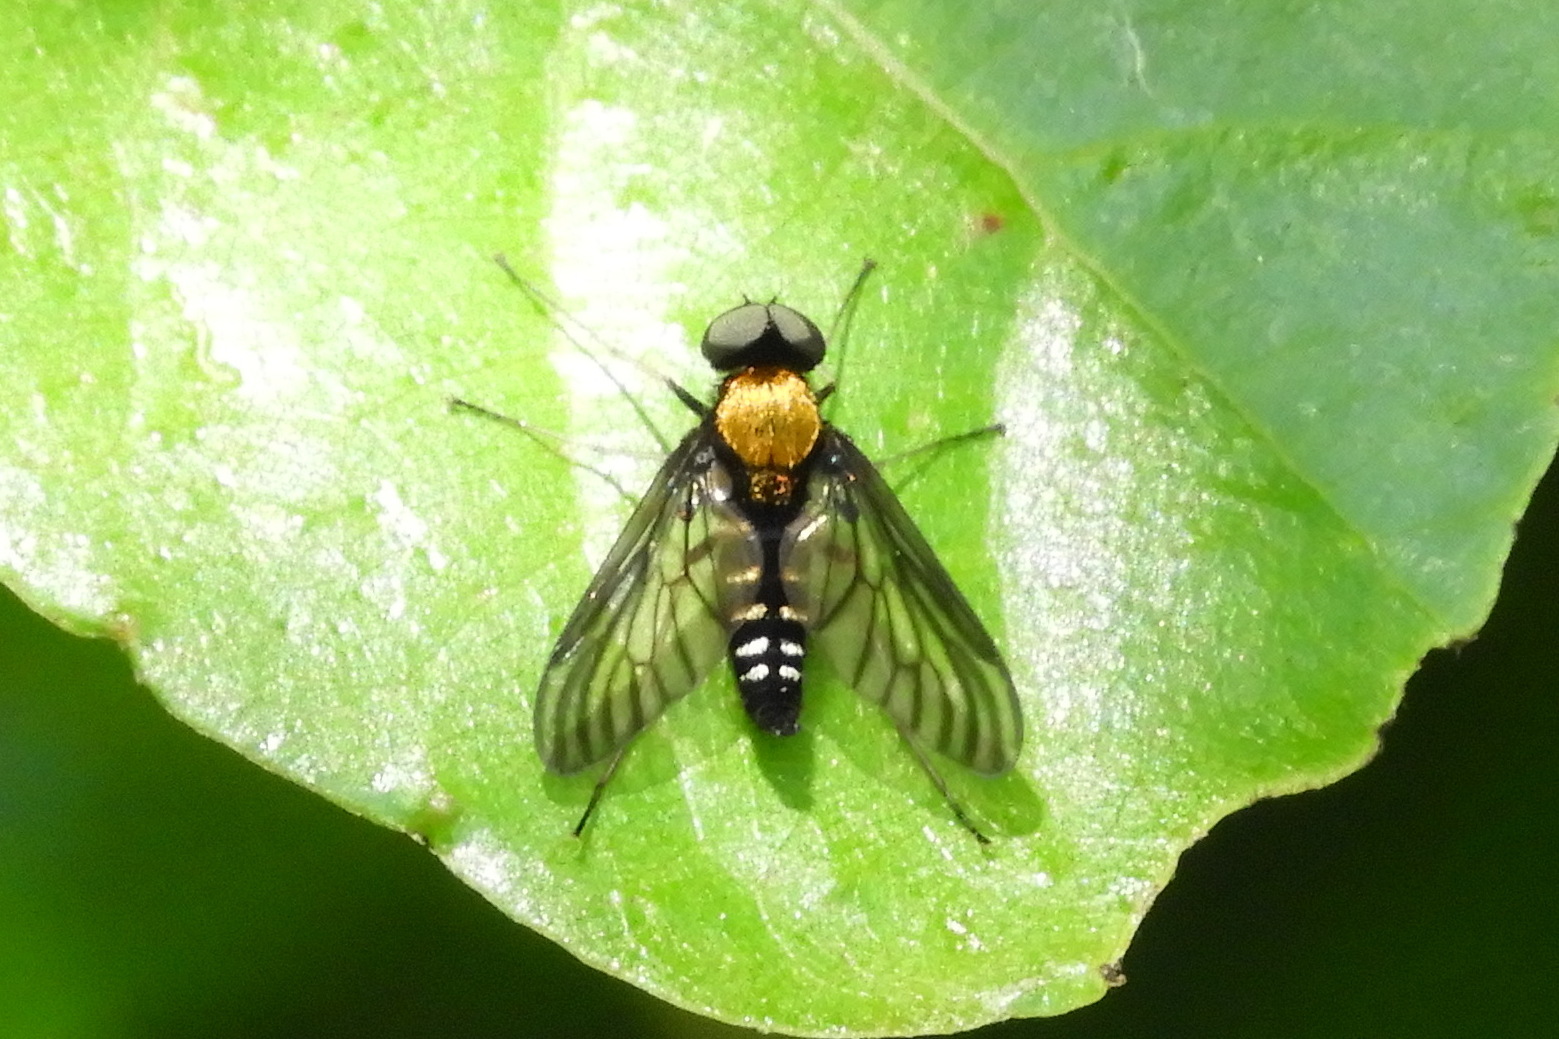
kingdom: Animalia
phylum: Arthropoda
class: Insecta
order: Diptera
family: Rhagionidae
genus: Chrysopilus
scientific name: Chrysopilus thoracicus
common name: Golden-backed snipe fly
